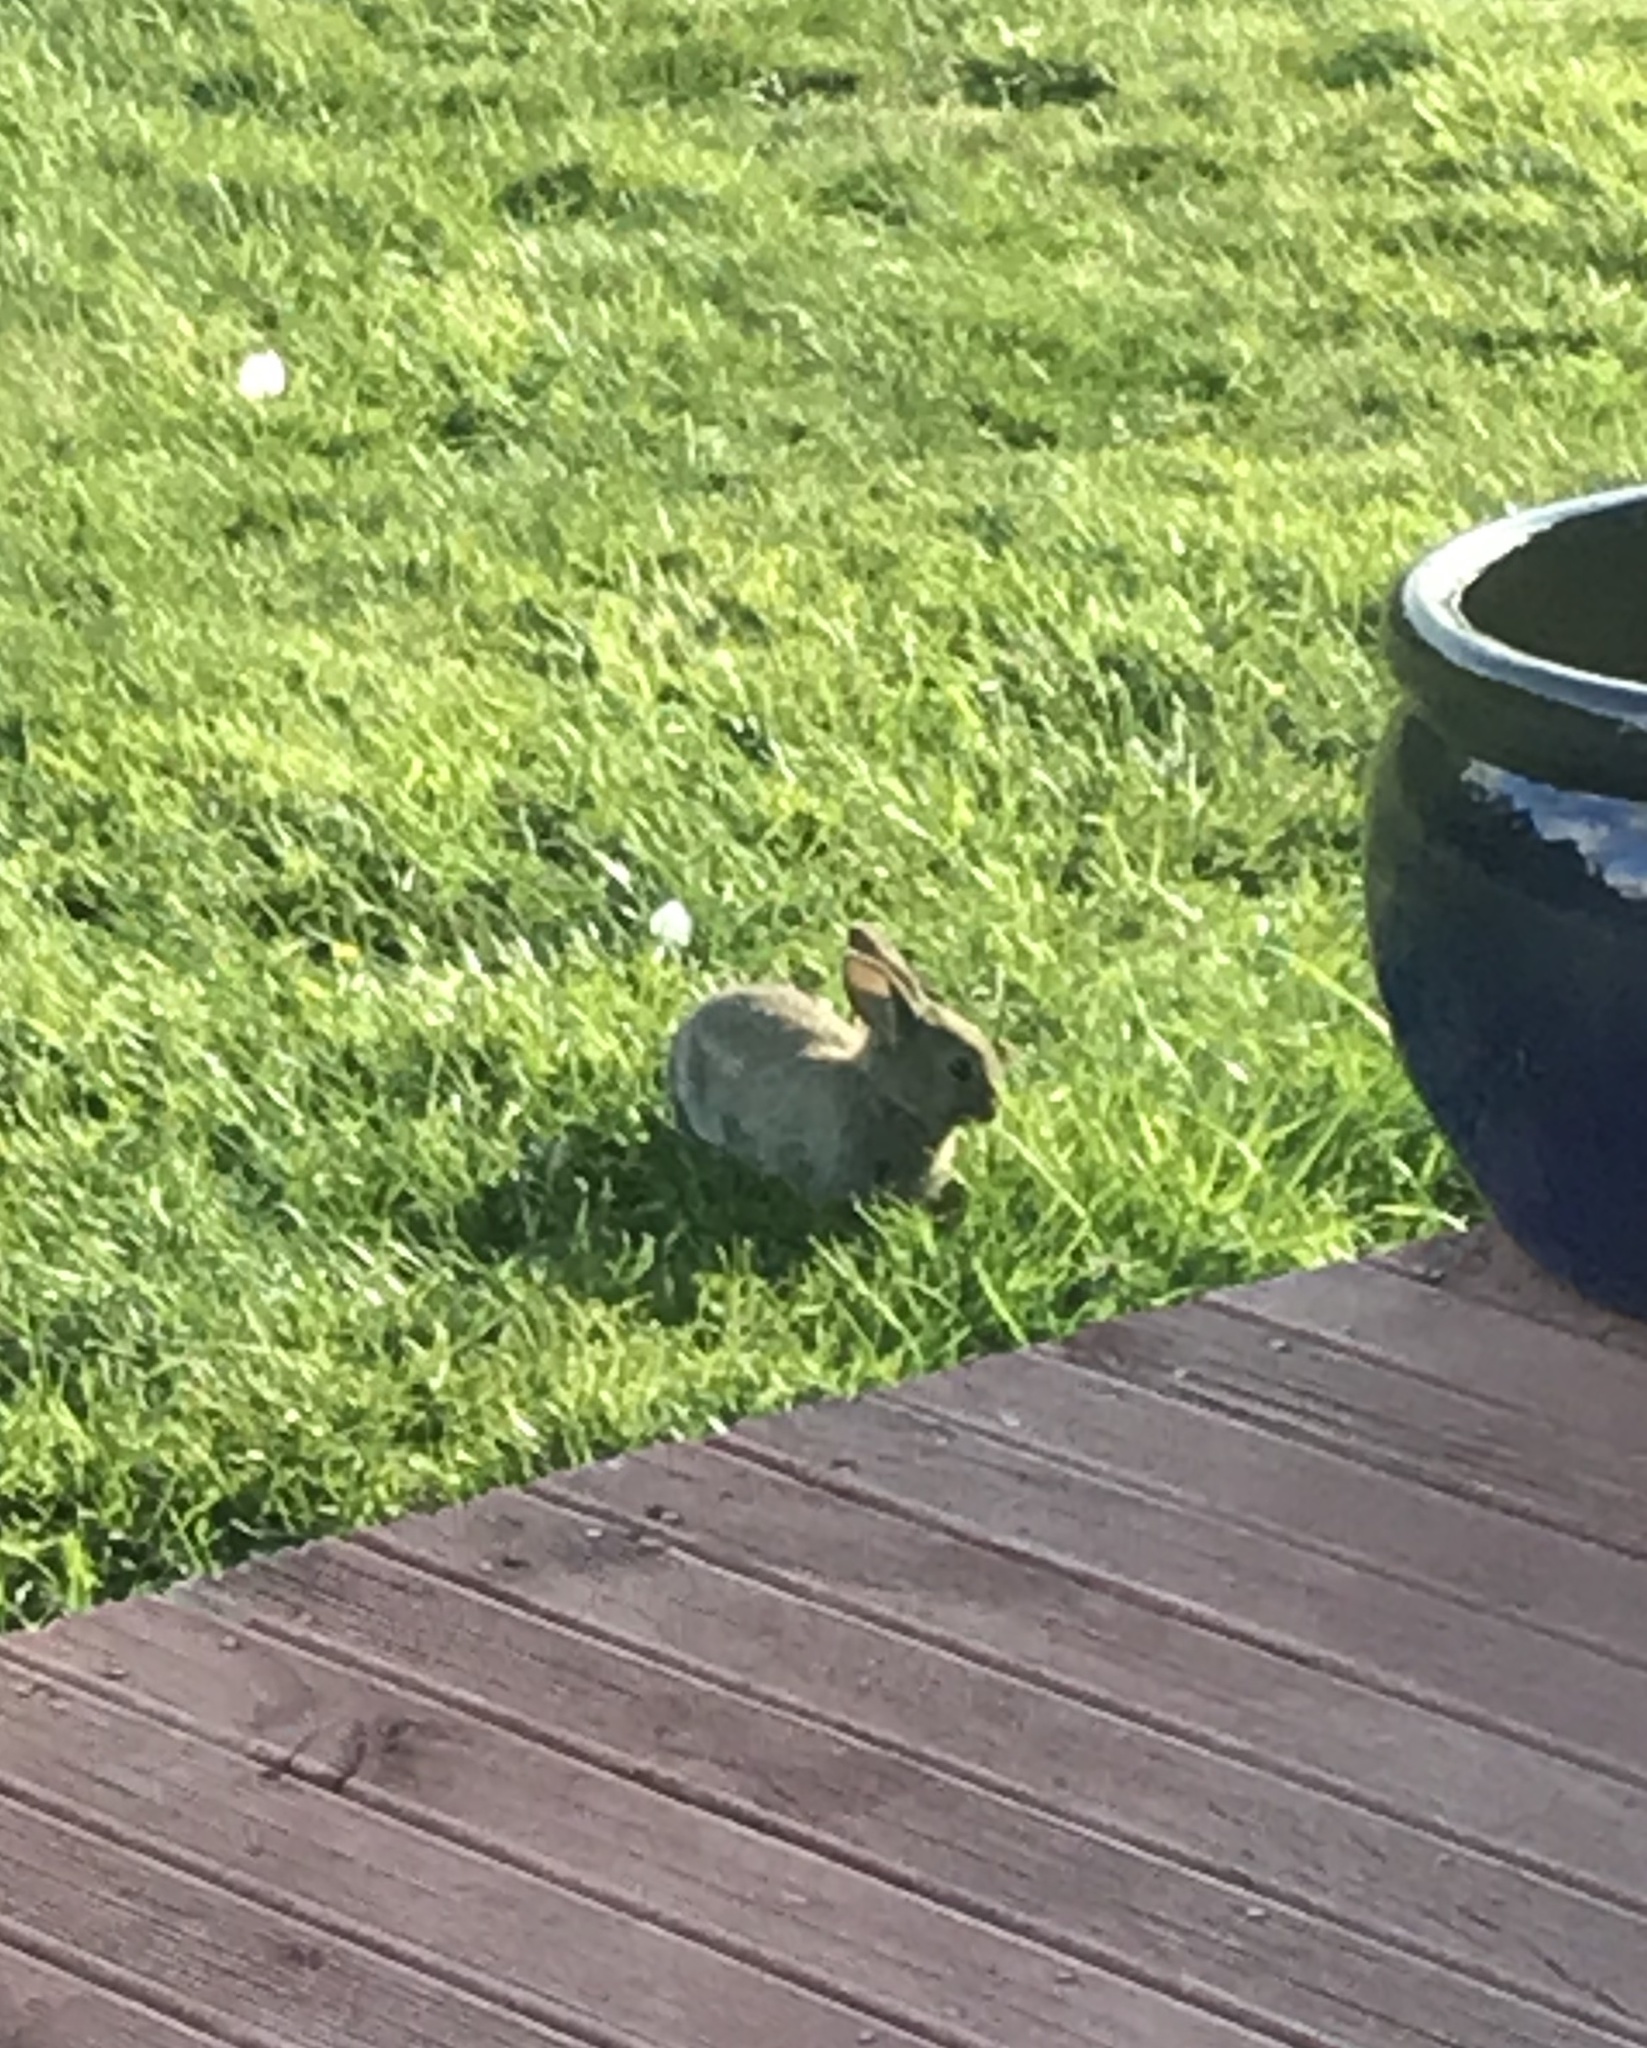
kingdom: Animalia
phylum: Chordata
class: Mammalia
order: Lagomorpha
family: Leporidae
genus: Oryctolagus
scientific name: Oryctolagus cuniculus
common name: European rabbit
